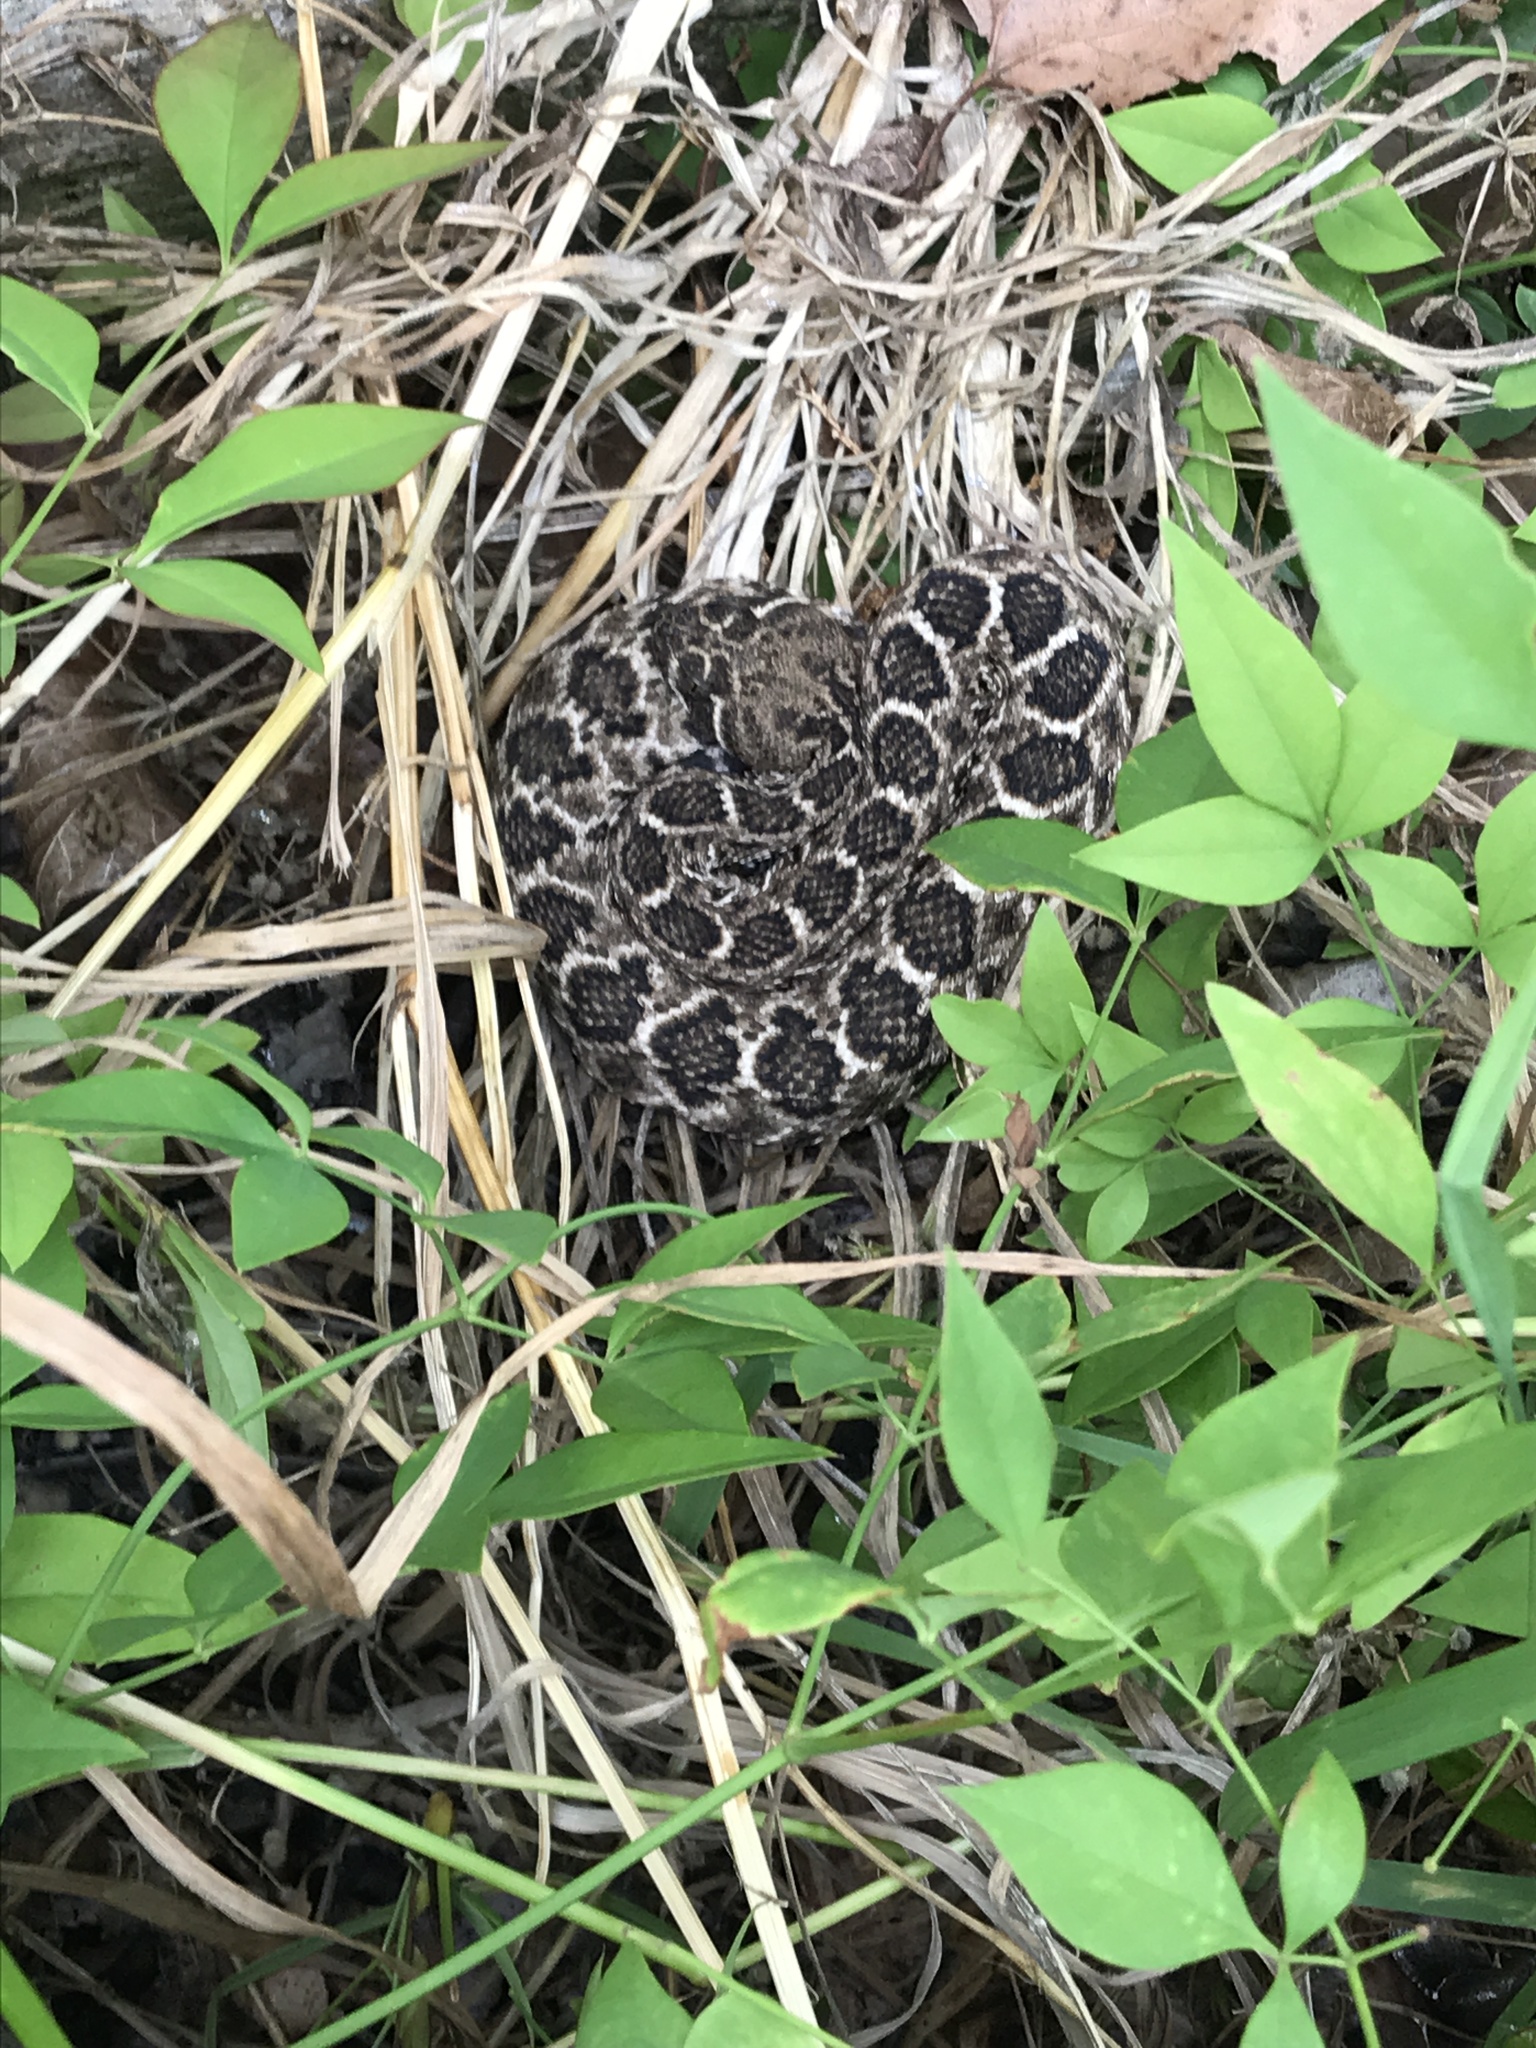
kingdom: Animalia
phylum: Chordata
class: Squamata
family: Viperidae
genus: Crotalus
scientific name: Crotalus atrox
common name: Western diamond-backed rattlesnake
